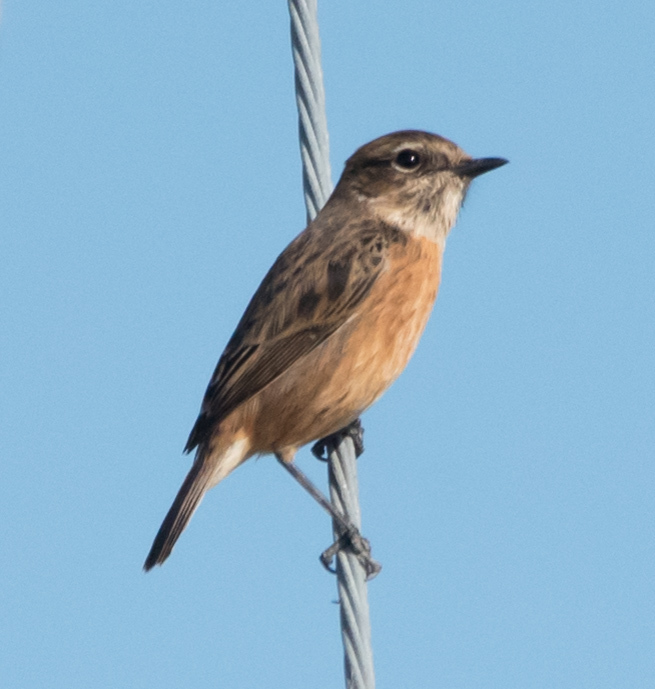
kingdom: Animalia
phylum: Chordata
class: Aves
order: Passeriformes
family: Muscicapidae
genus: Saxicola
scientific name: Saxicola rubicola
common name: European stonechat
